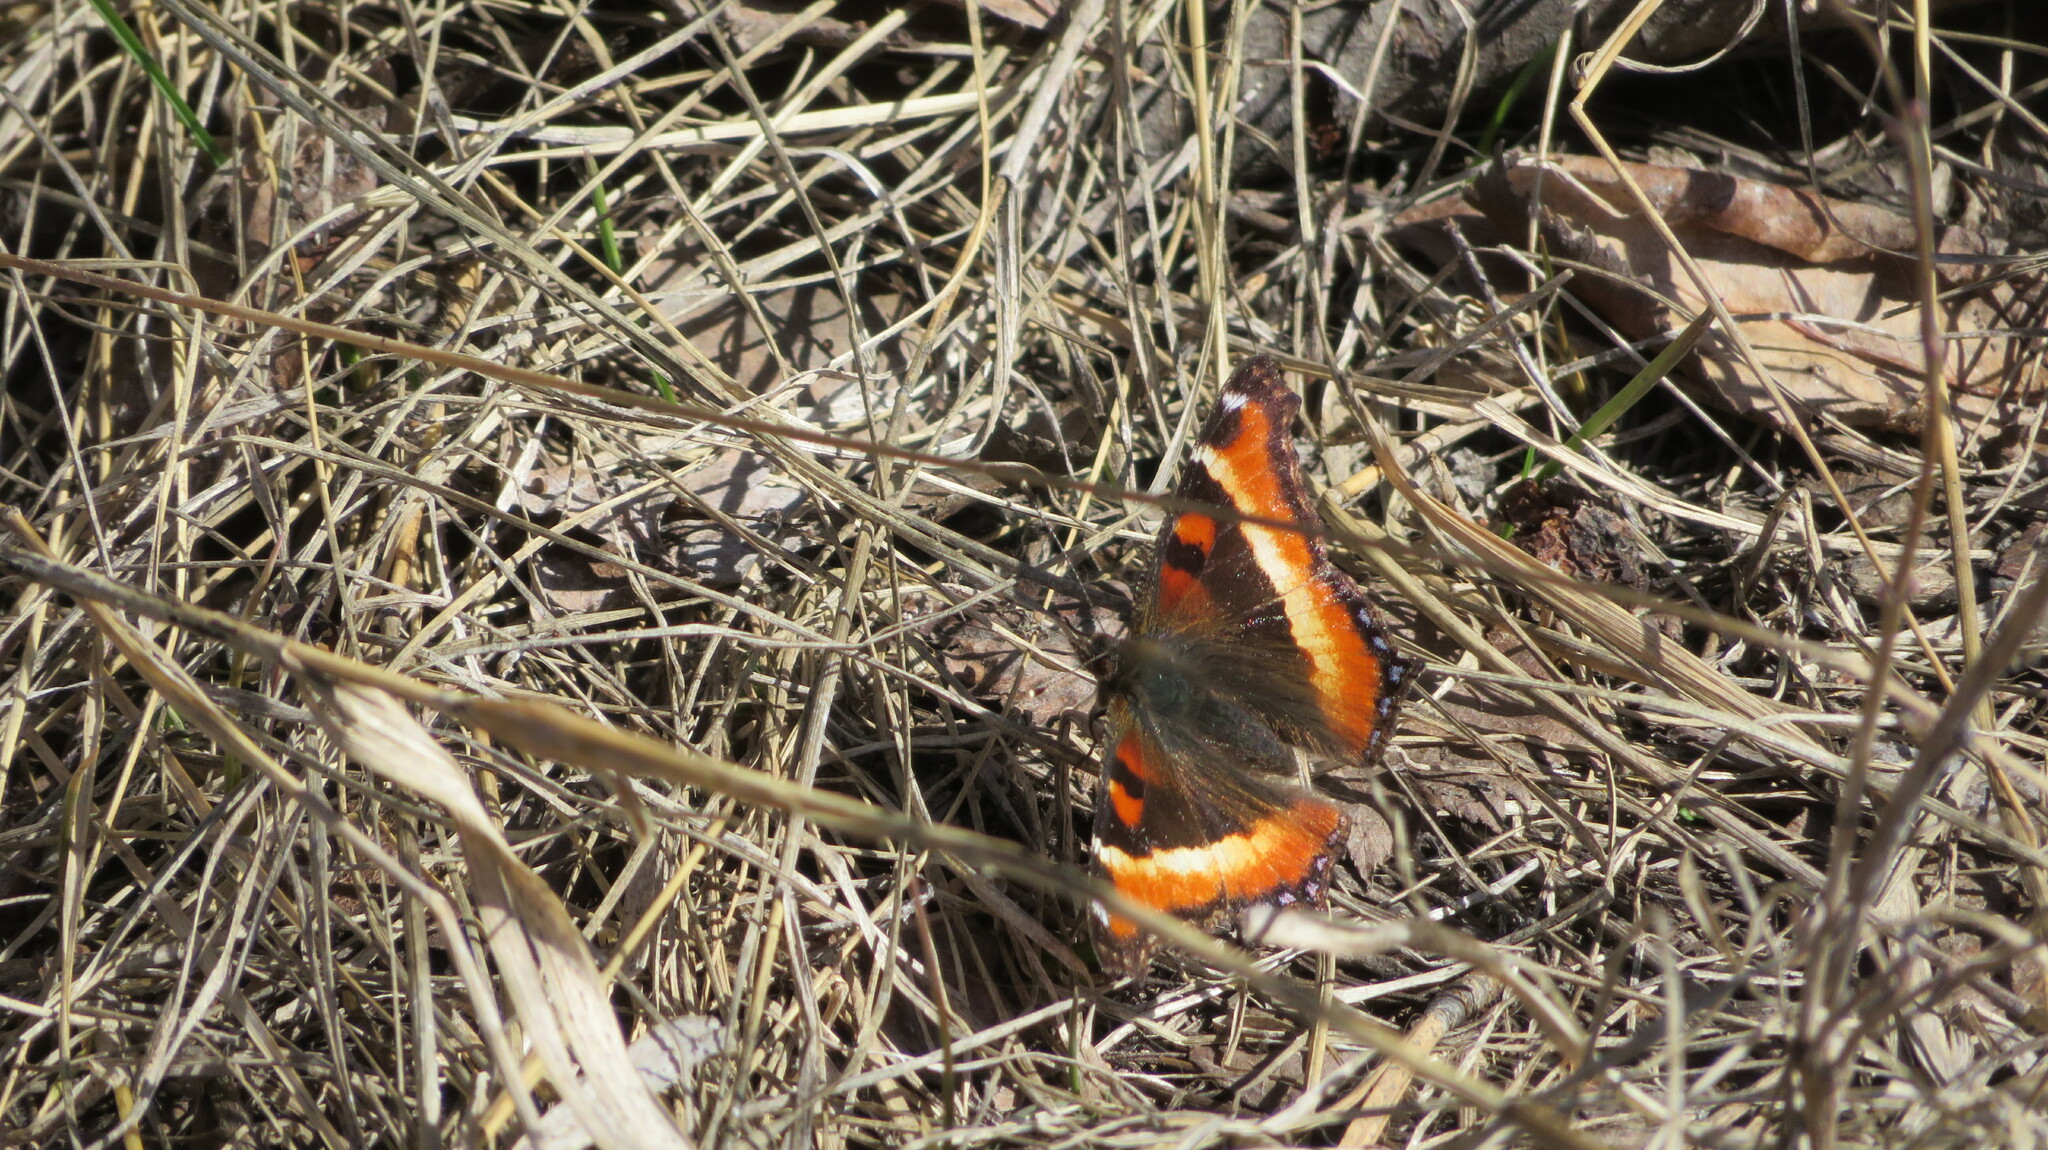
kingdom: Animalia
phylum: Arthropoda
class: Insecta
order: Lepidoptera
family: Nymphalidae
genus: Aglais
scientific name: Aglais milberti
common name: Milbert's tortoiseshell
